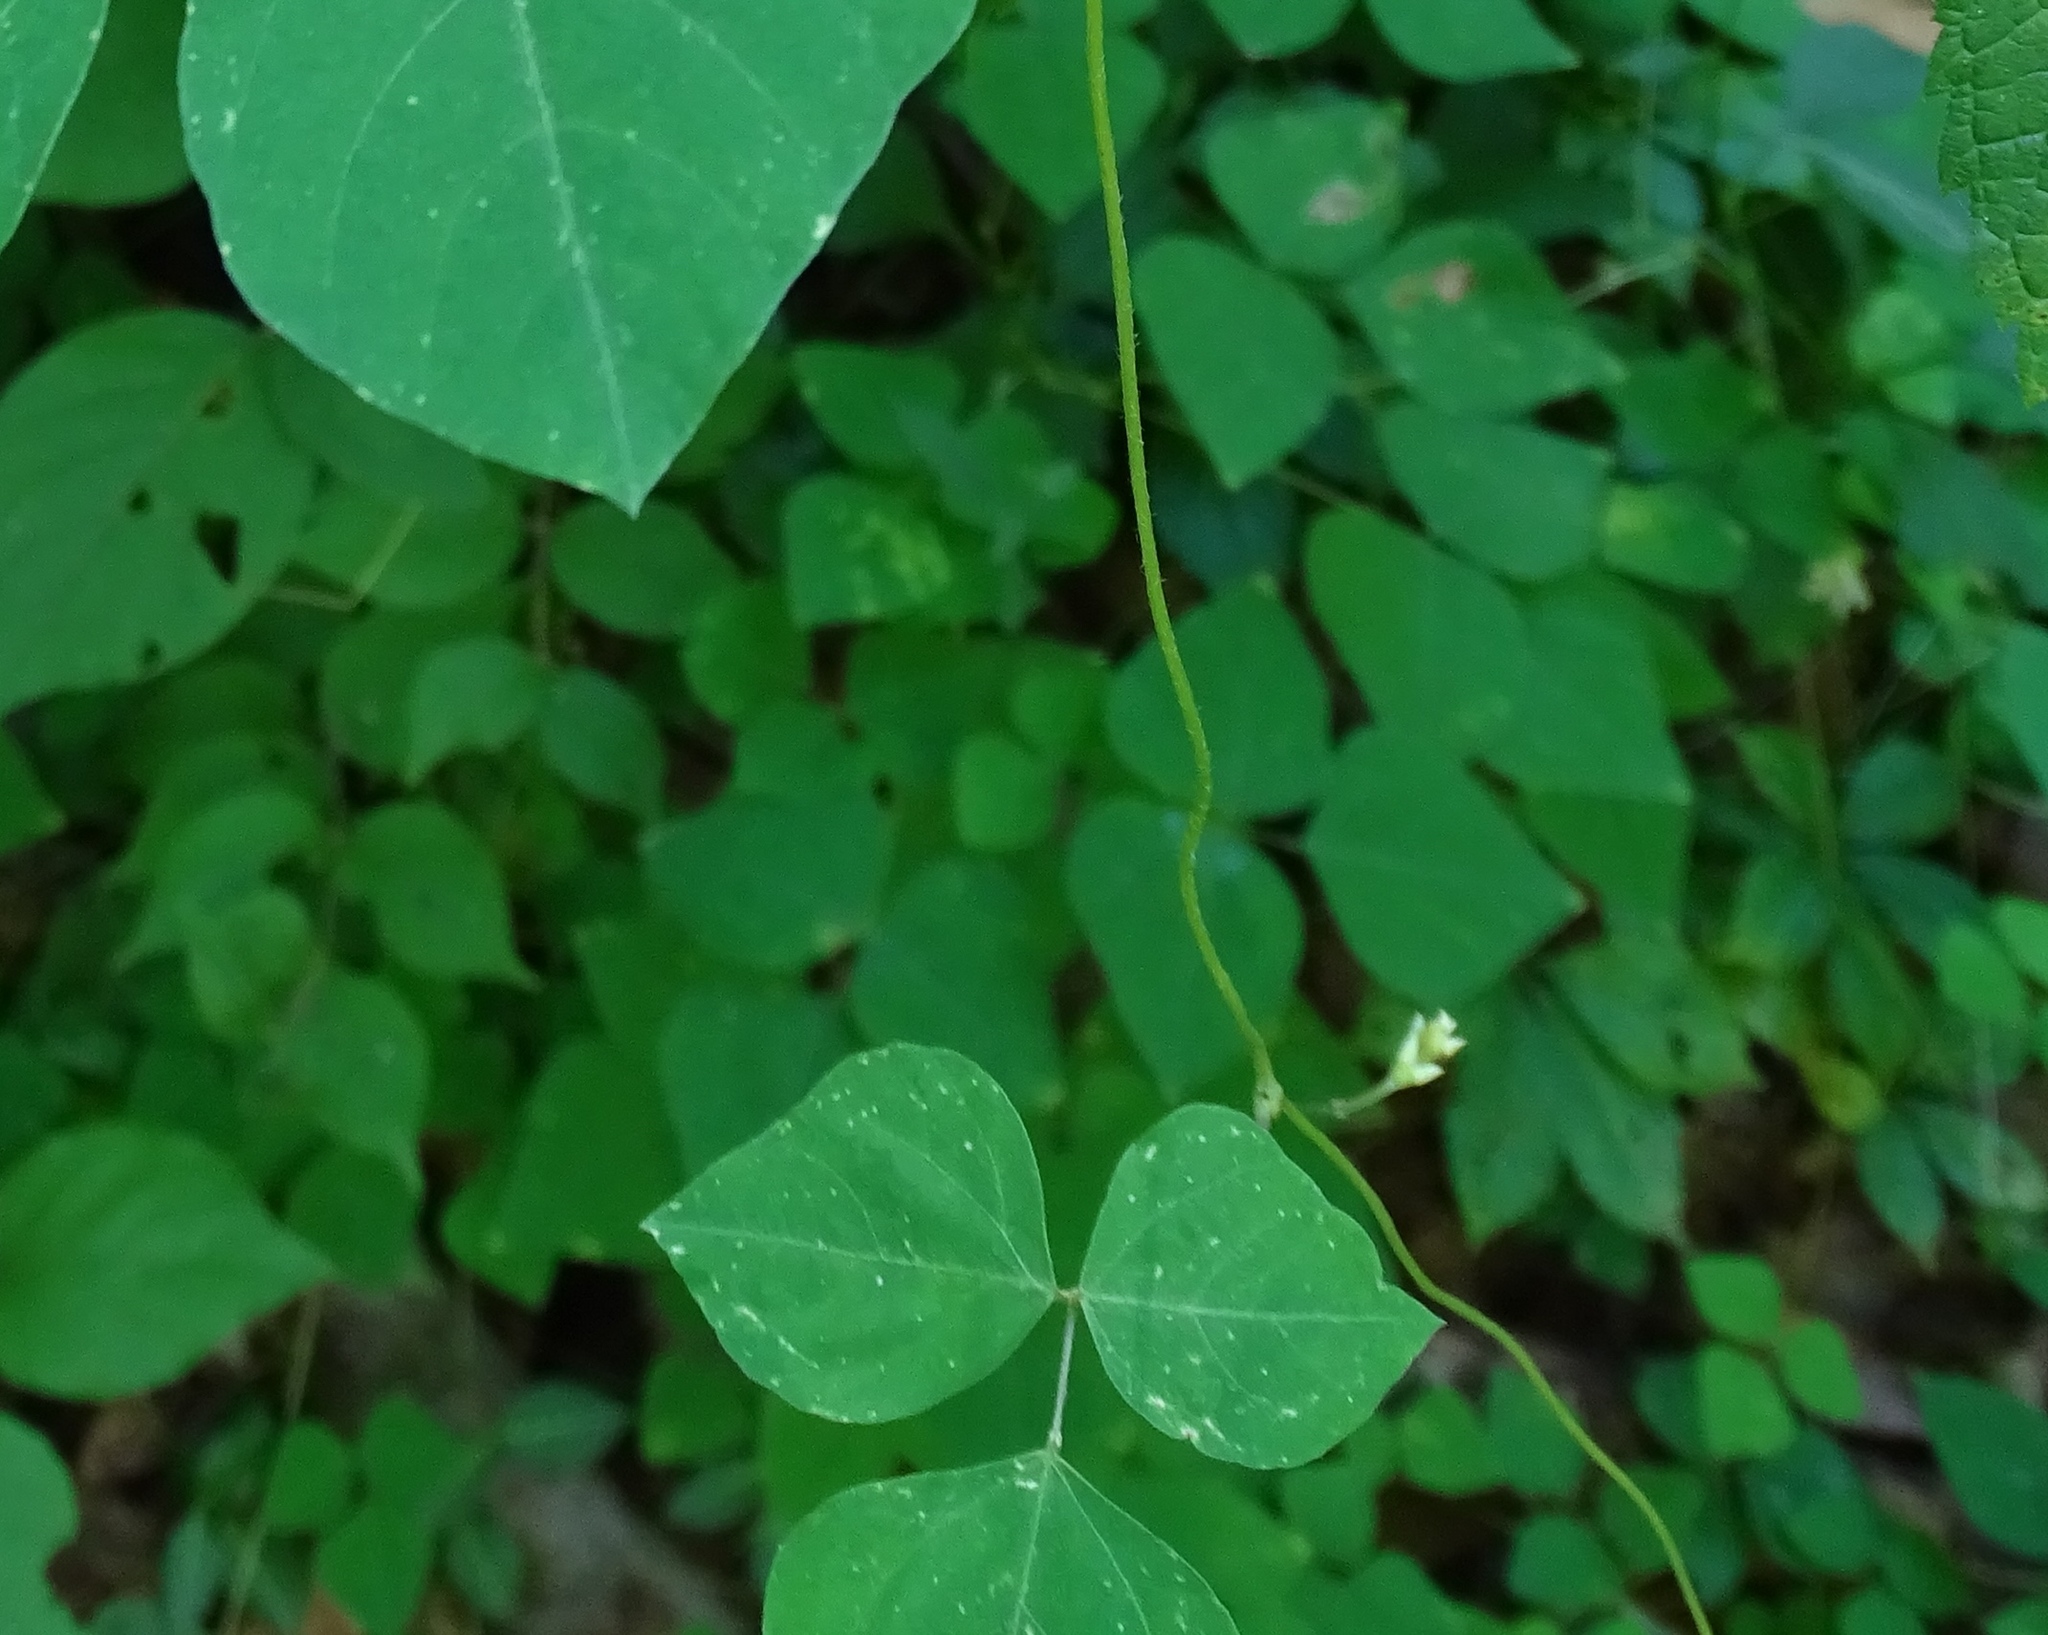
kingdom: Plantae
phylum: Tracheophyta
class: Magnoliopsida
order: Fabales
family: Fabaceae
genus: Amphicarpaea
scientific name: Amphicarpaea bracteata
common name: American hog peanut
